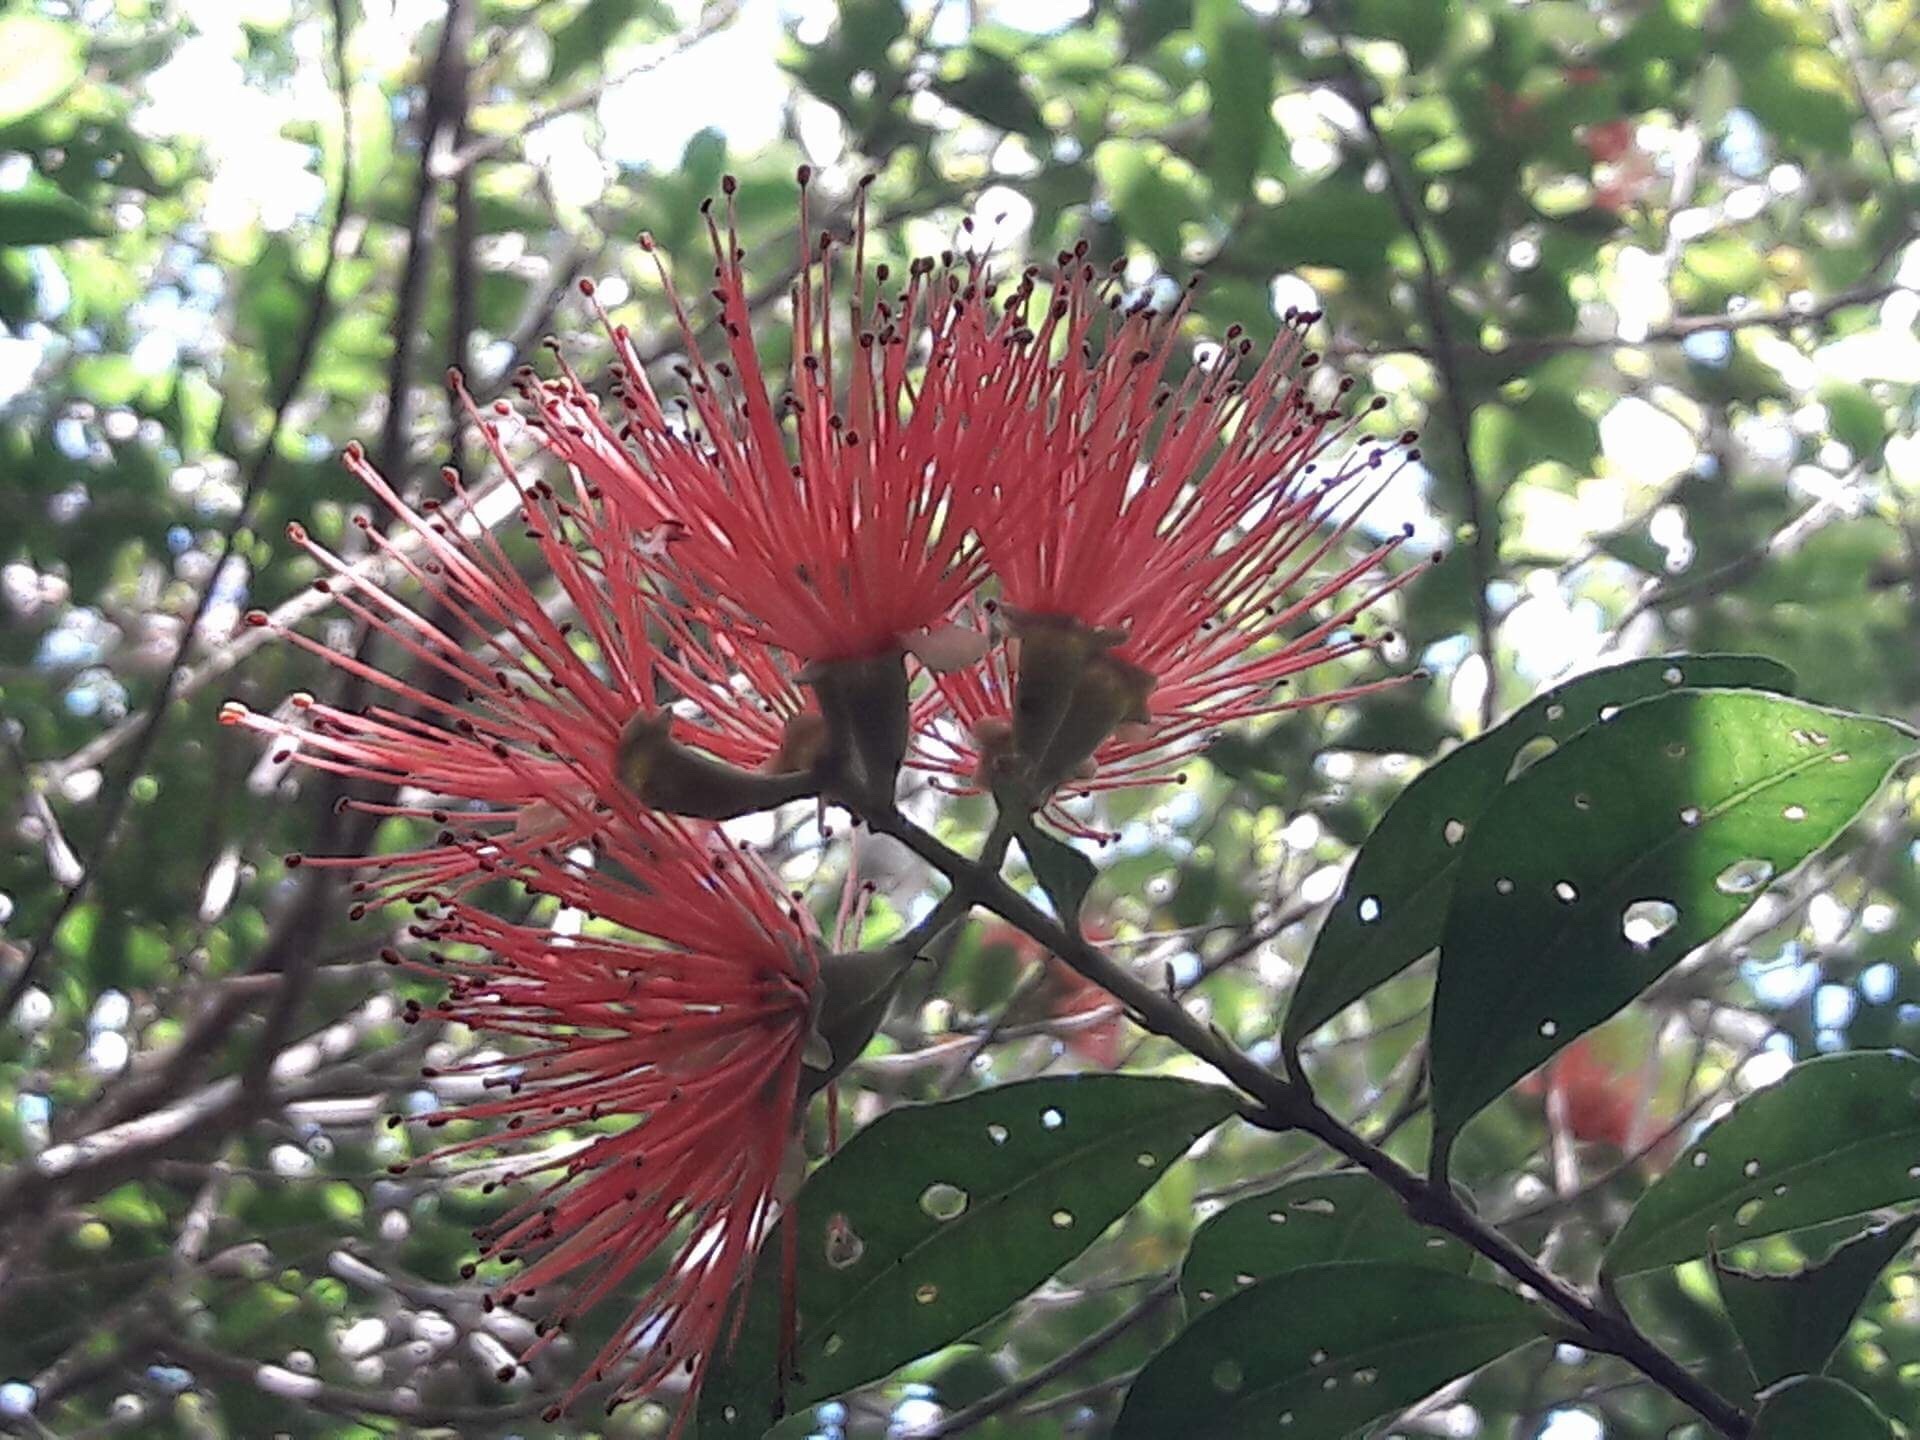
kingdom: Plantae
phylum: Tracheophyta
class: Magnoliopsida
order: Myrtales
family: Myrtaceae
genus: Metrosideros
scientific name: Metrosideros fulgens
